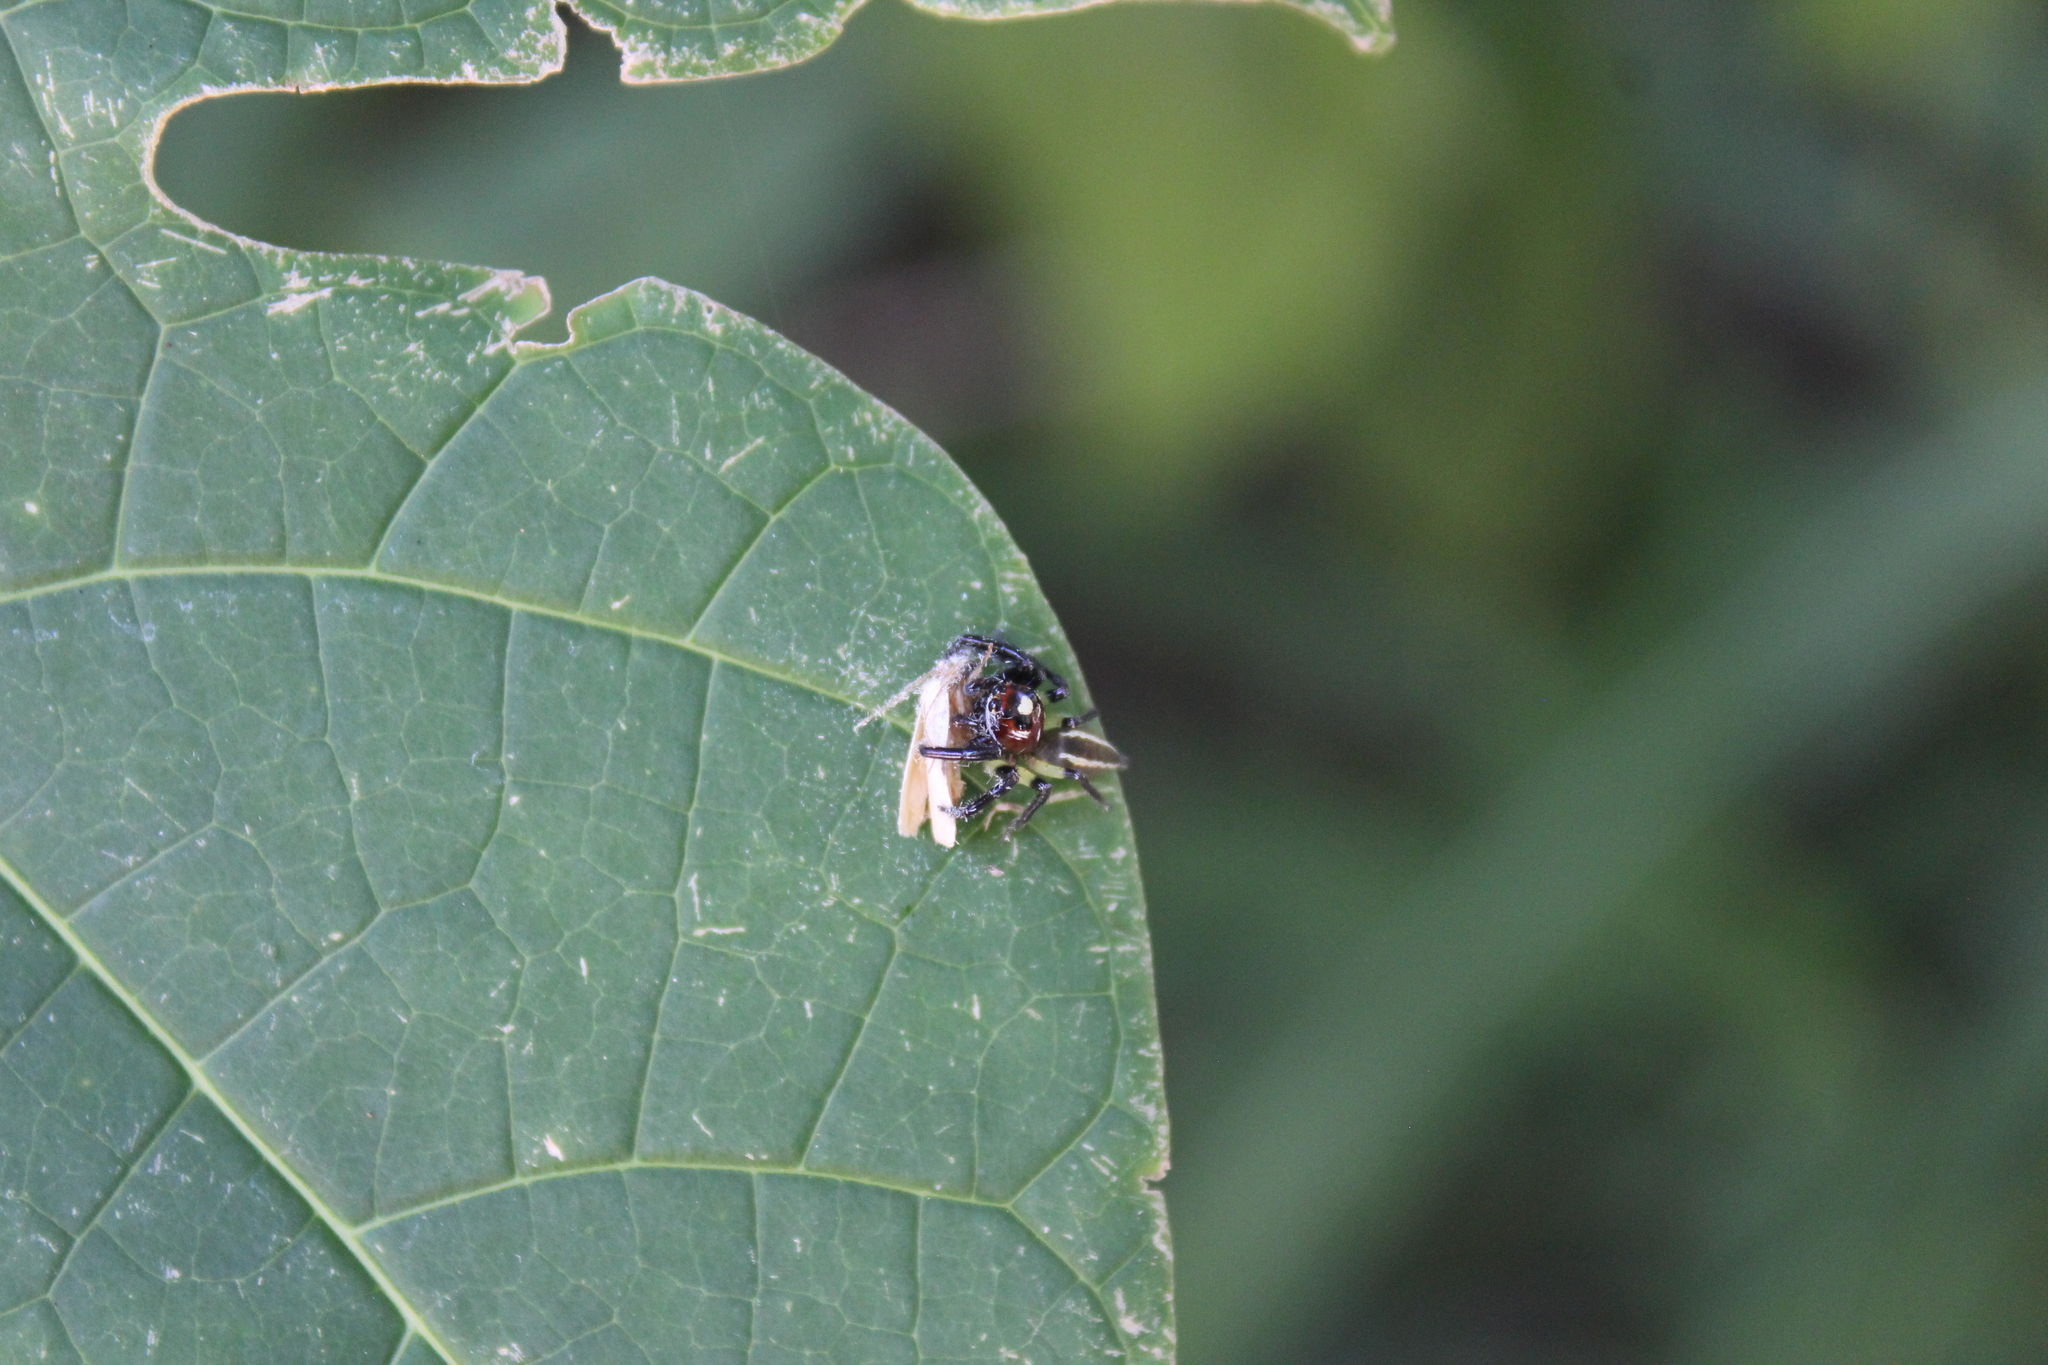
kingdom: Animalia
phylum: Arthropoda
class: Arachnida
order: Araneae
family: Salticidae
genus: Colonus
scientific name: Colonus sylvanus
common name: Jumping spiders
